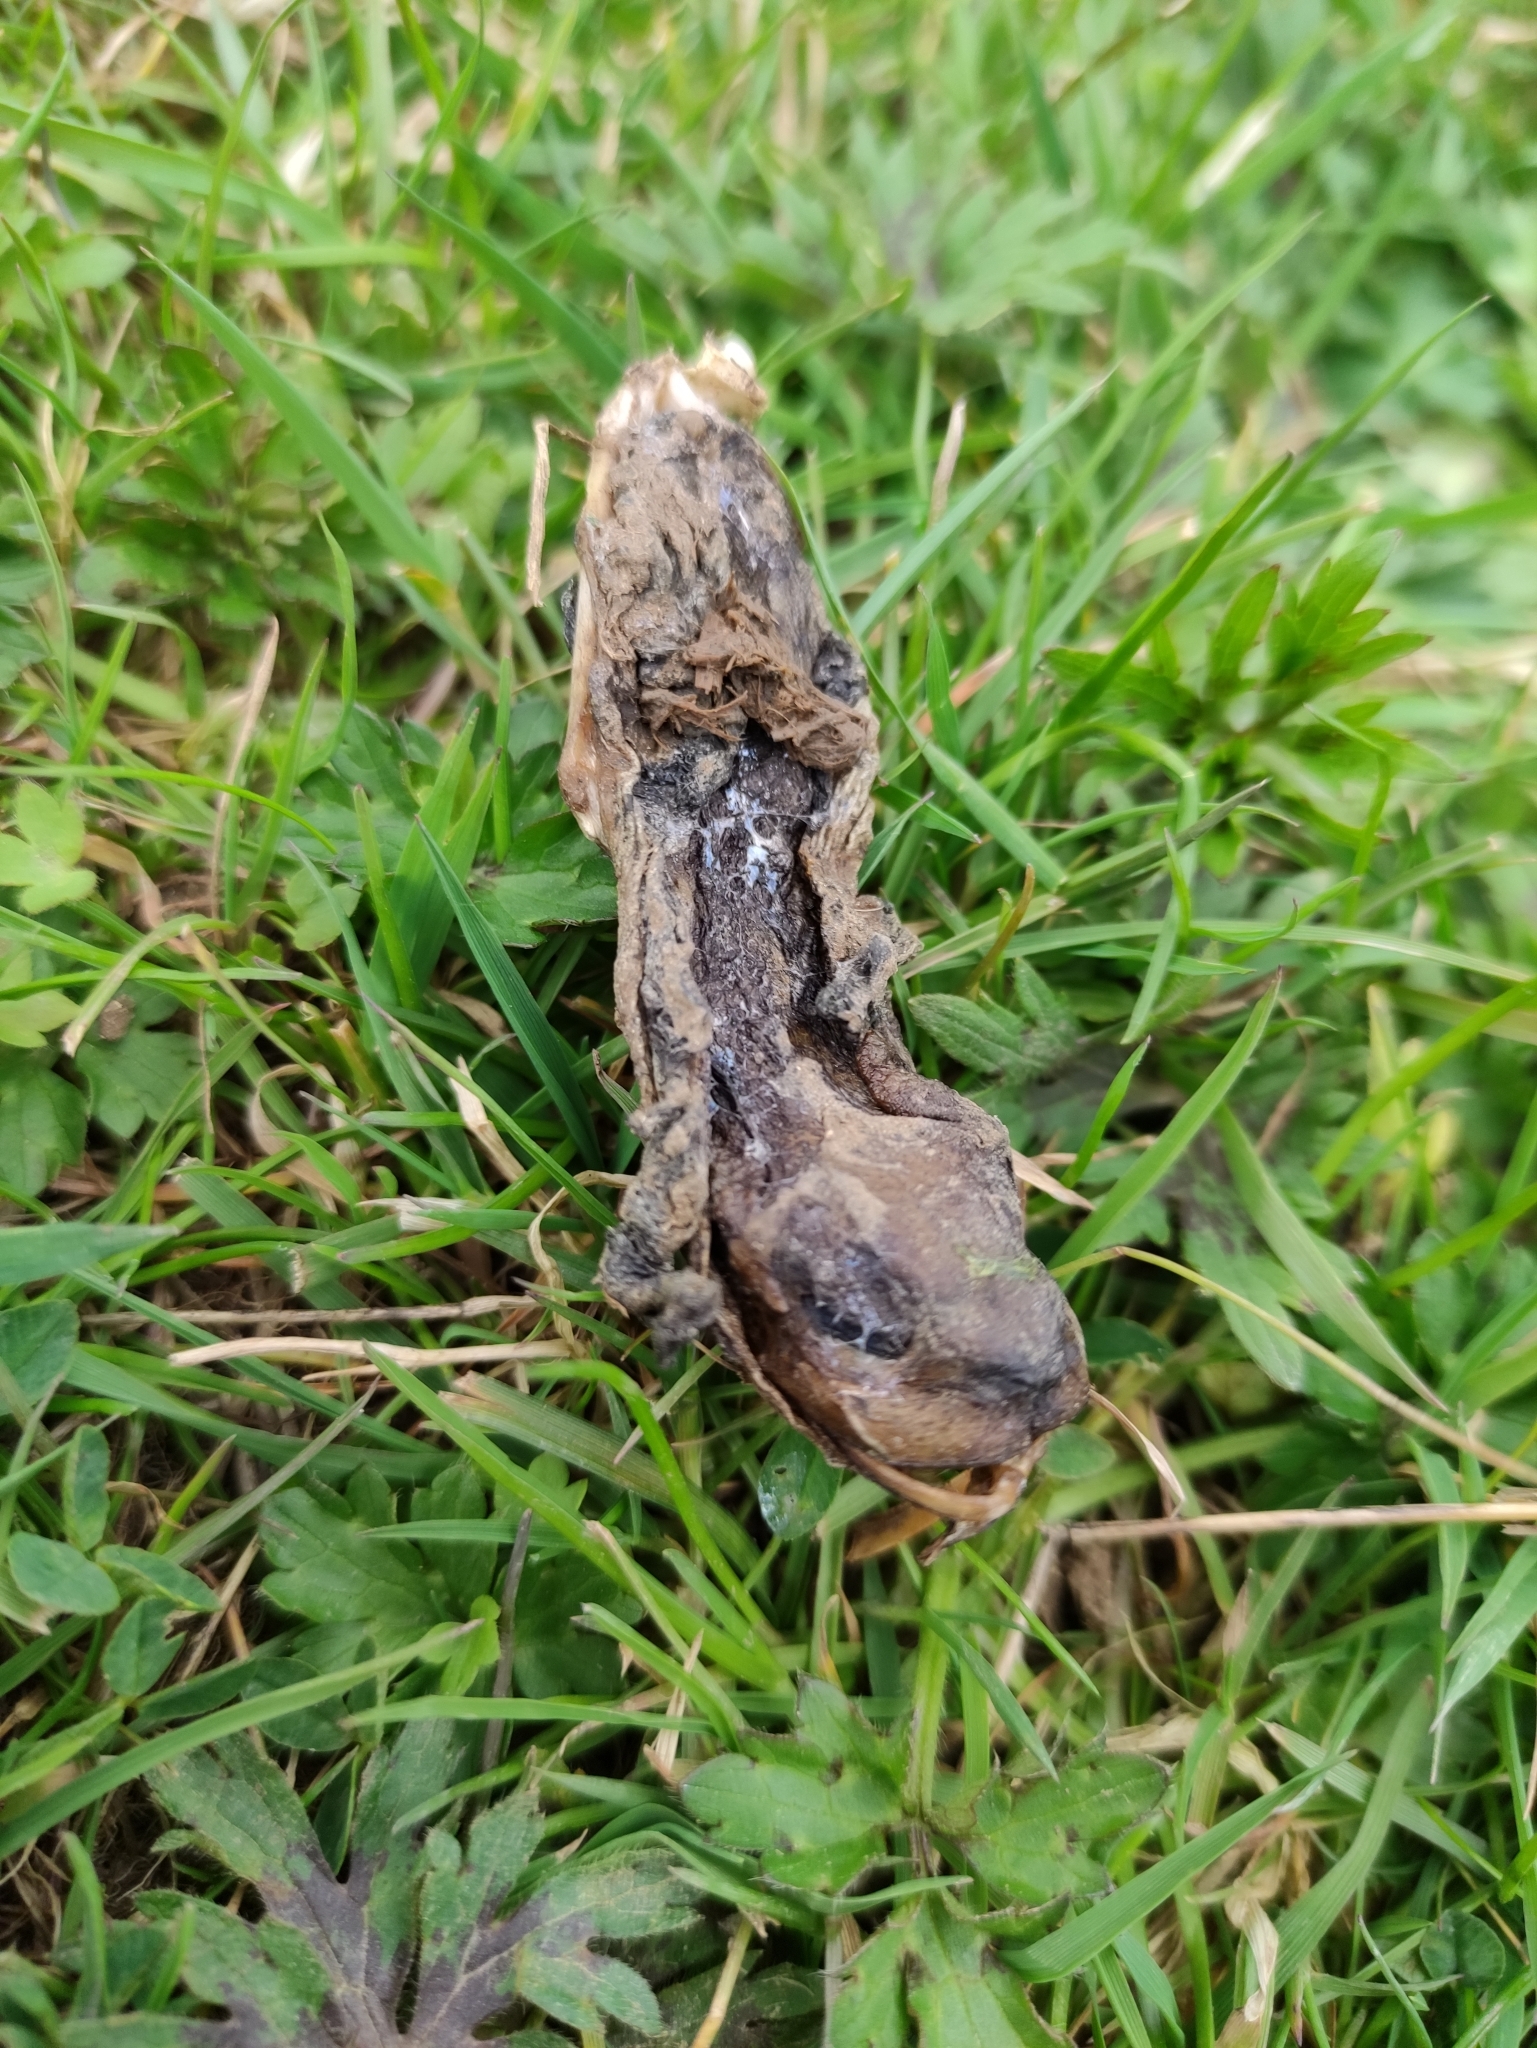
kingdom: Animalia
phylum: Chordata
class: Amphibia
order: Anura
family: Bufonidae
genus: Bufo
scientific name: Bufo bufo
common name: Common toad
